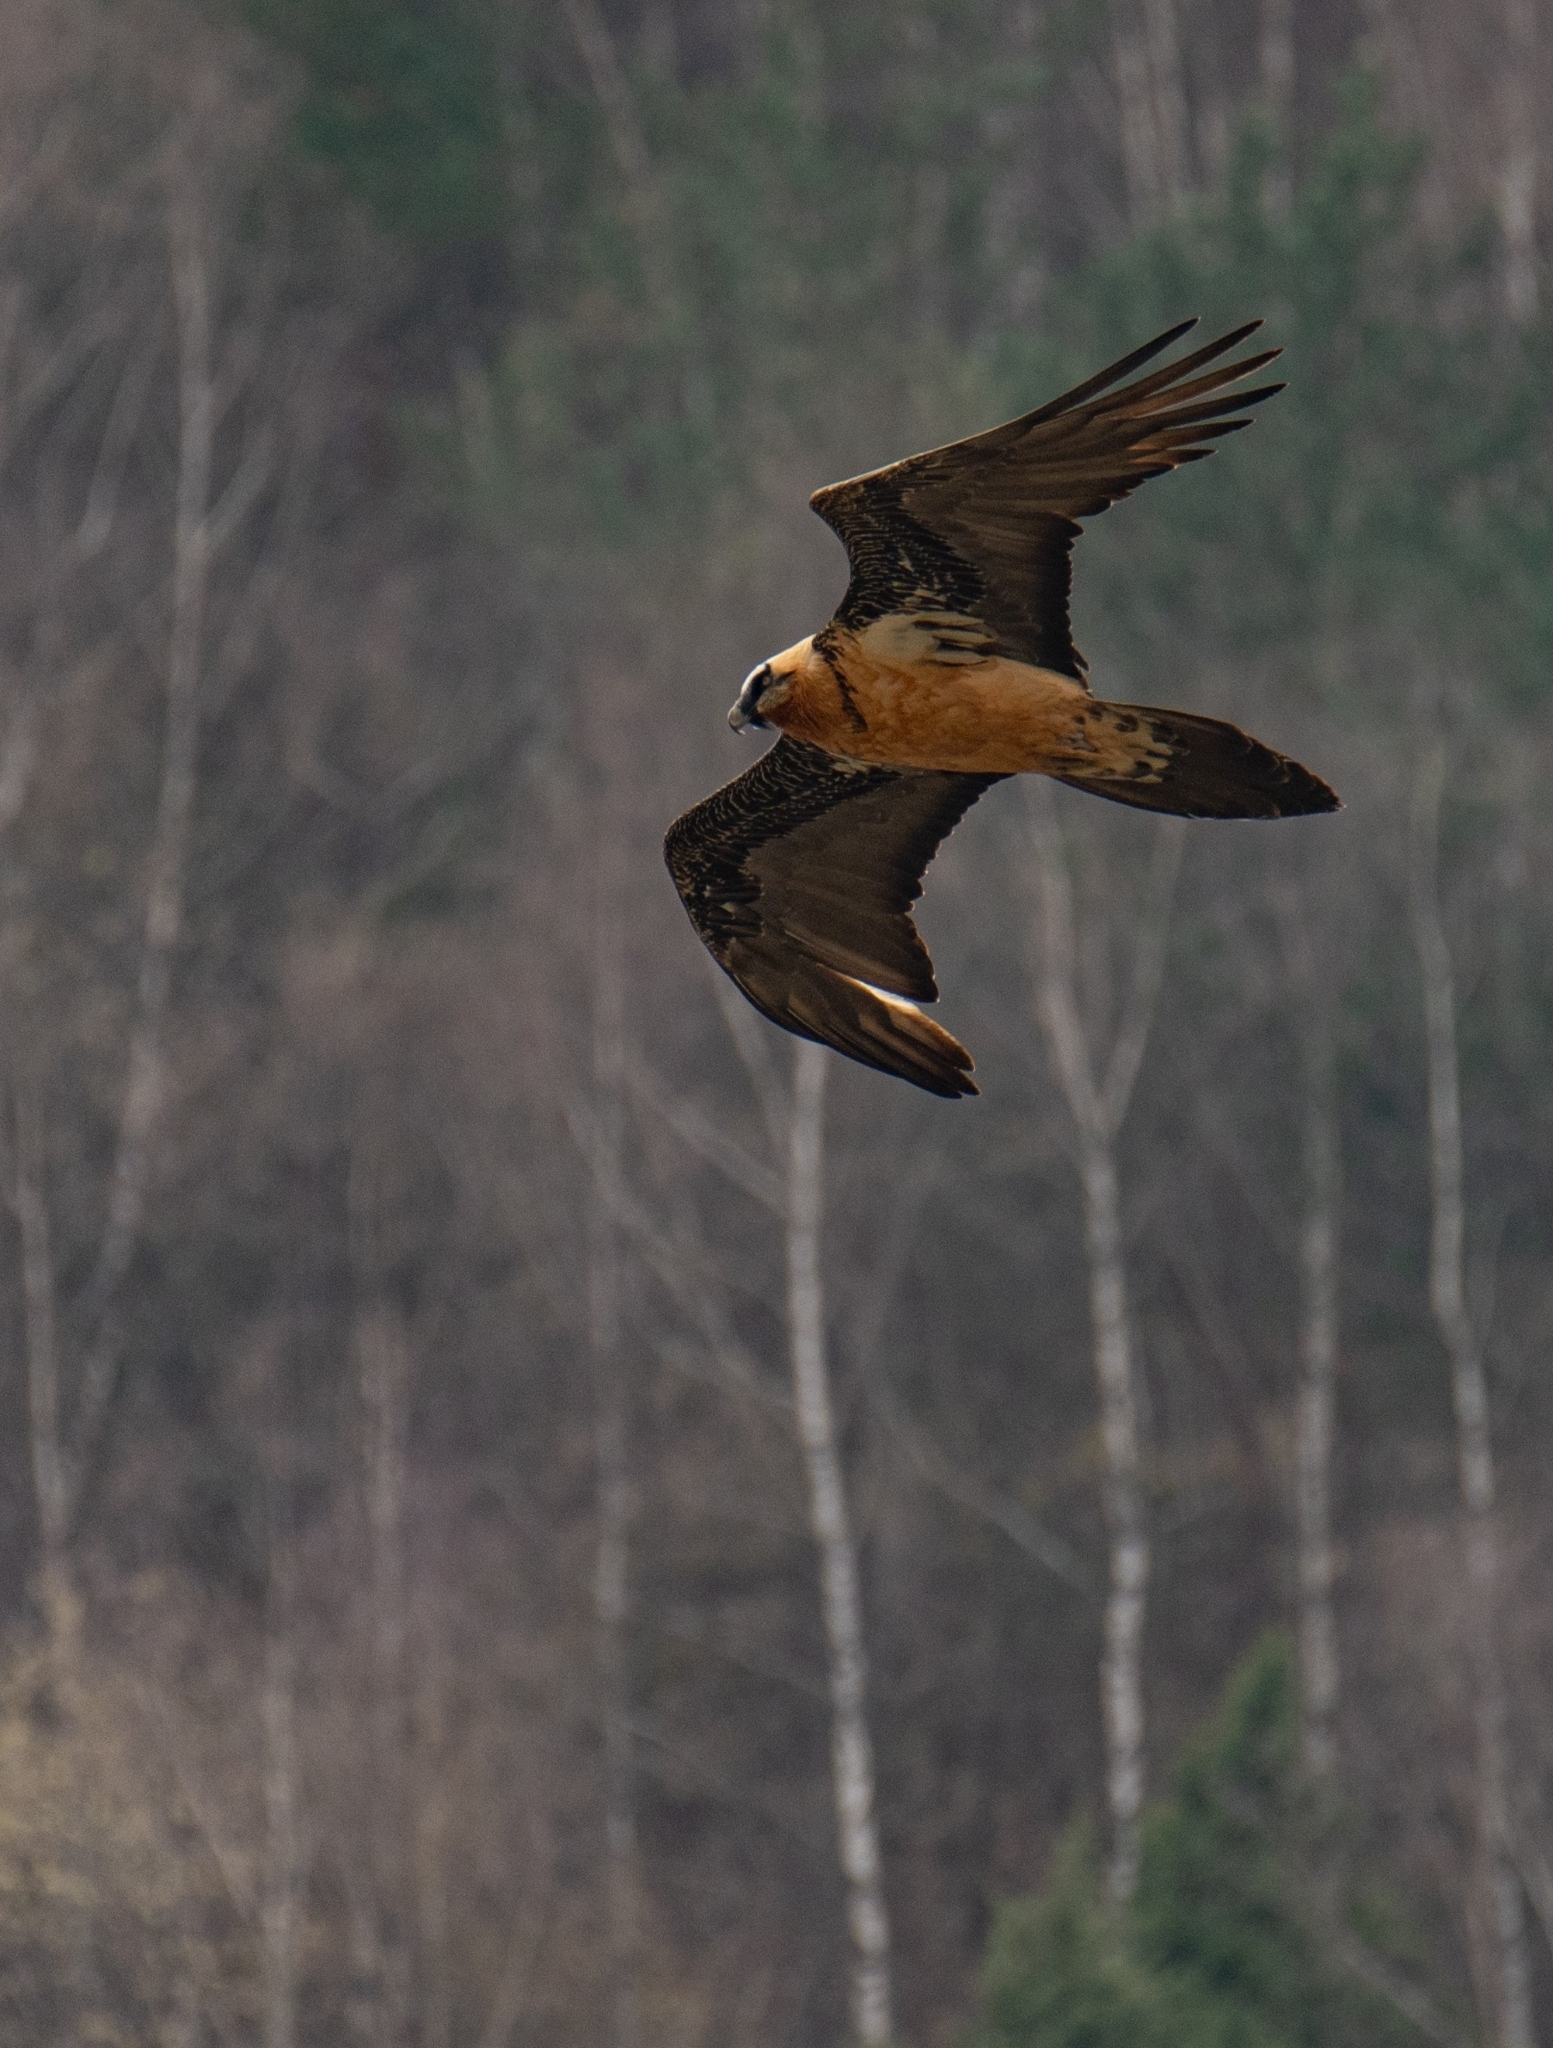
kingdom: Animalia
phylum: Chordata
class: Aves
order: Accipitriformes
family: Accipitridae
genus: Gypaetus
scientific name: Gypaetus barbatus
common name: Bearded vulture
